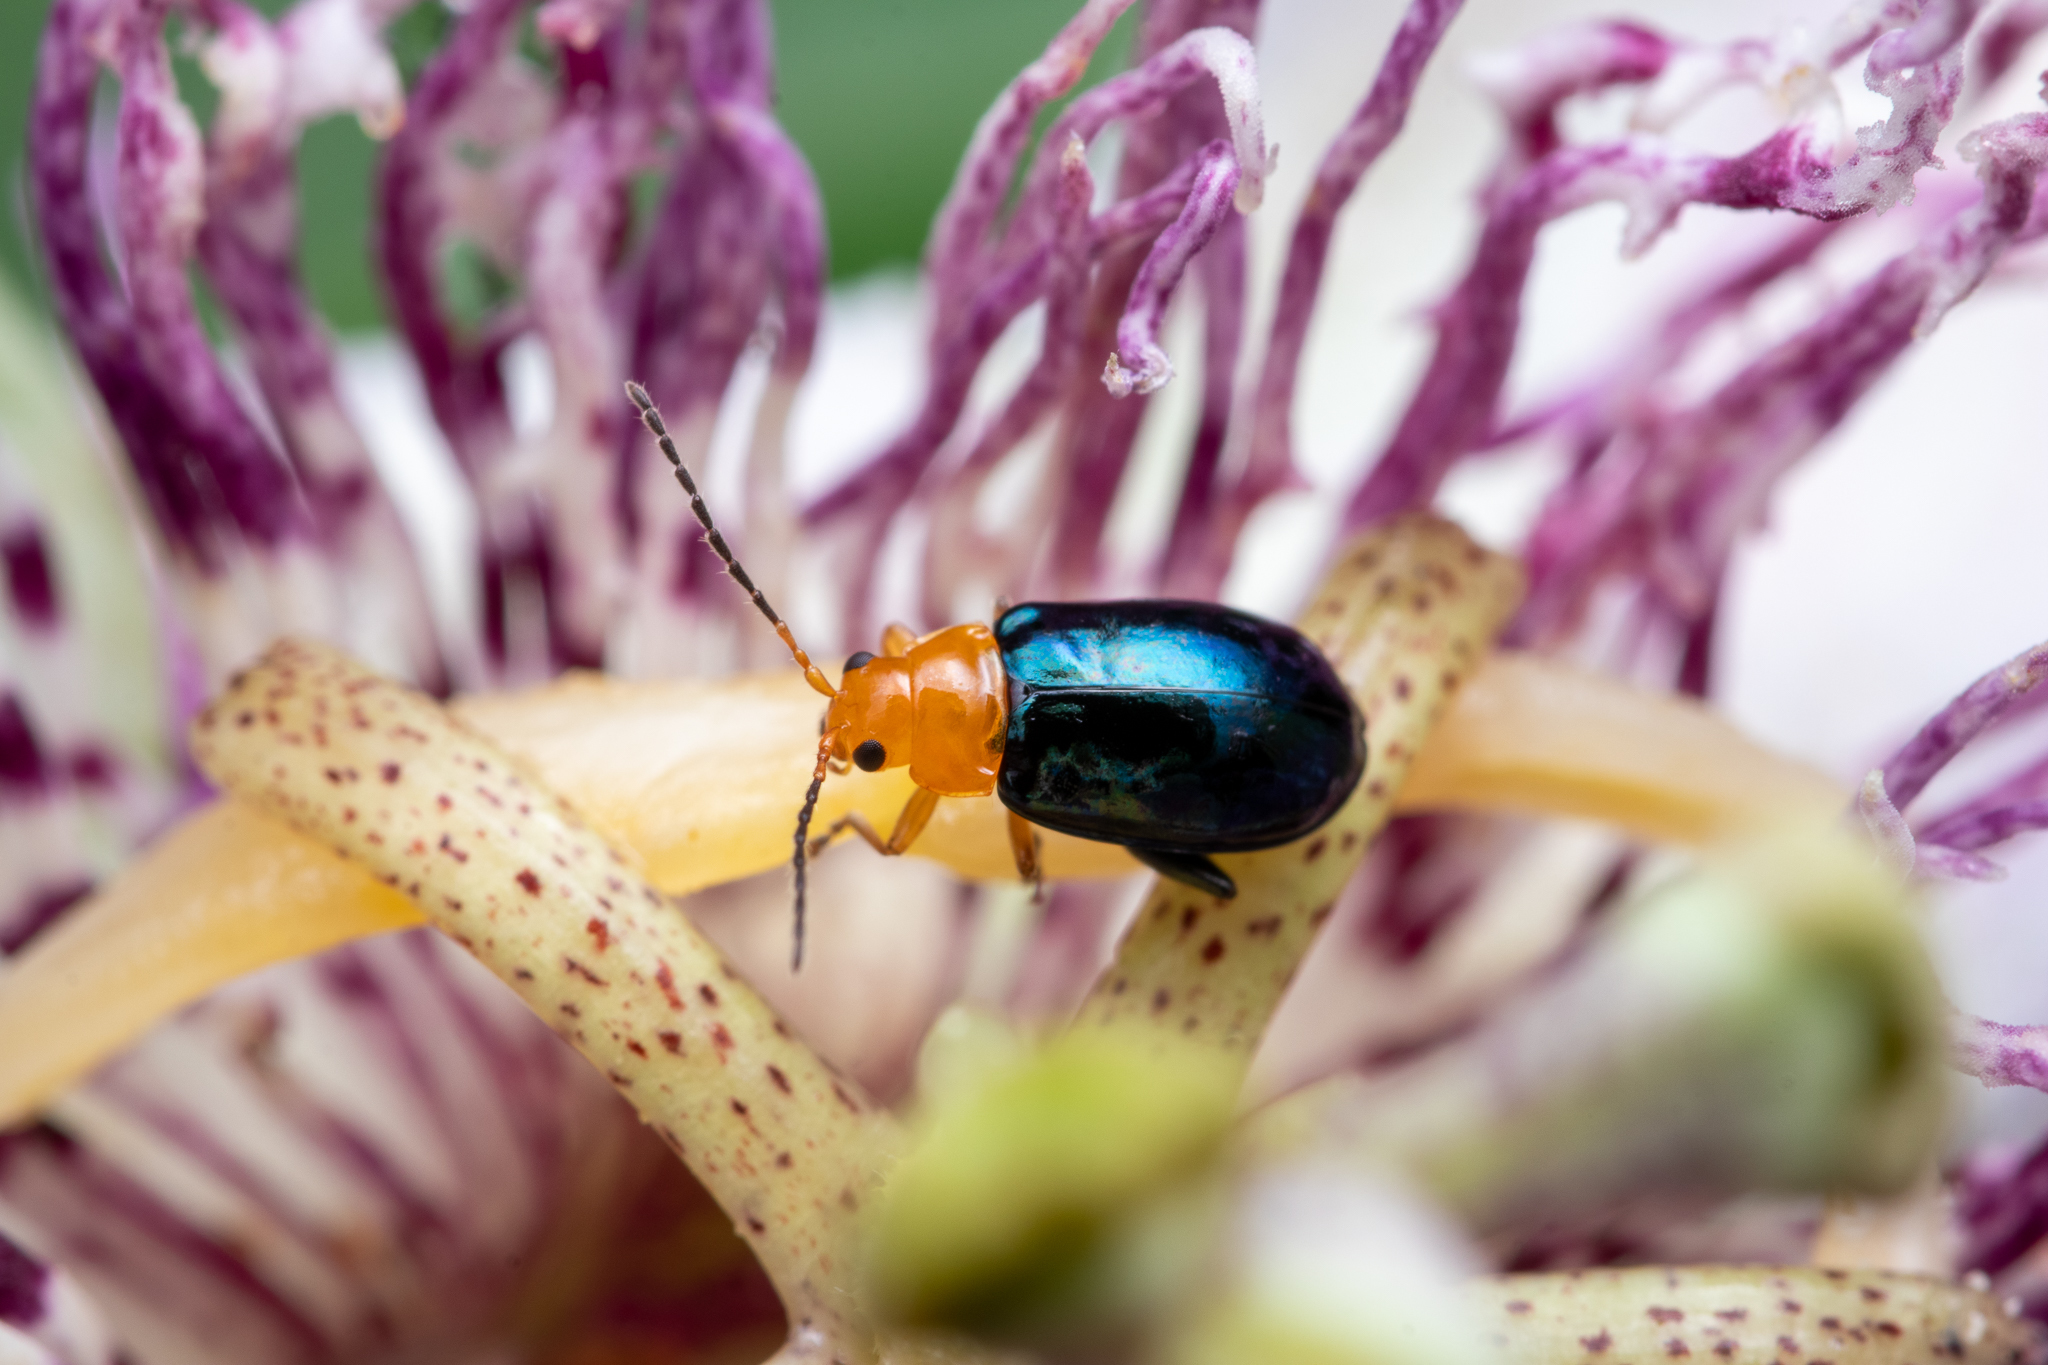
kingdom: Animalia
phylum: Arthropoda
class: Insecta
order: Coleoptera
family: Chrysomelidae
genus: Parchicola
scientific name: Parchicola iris
